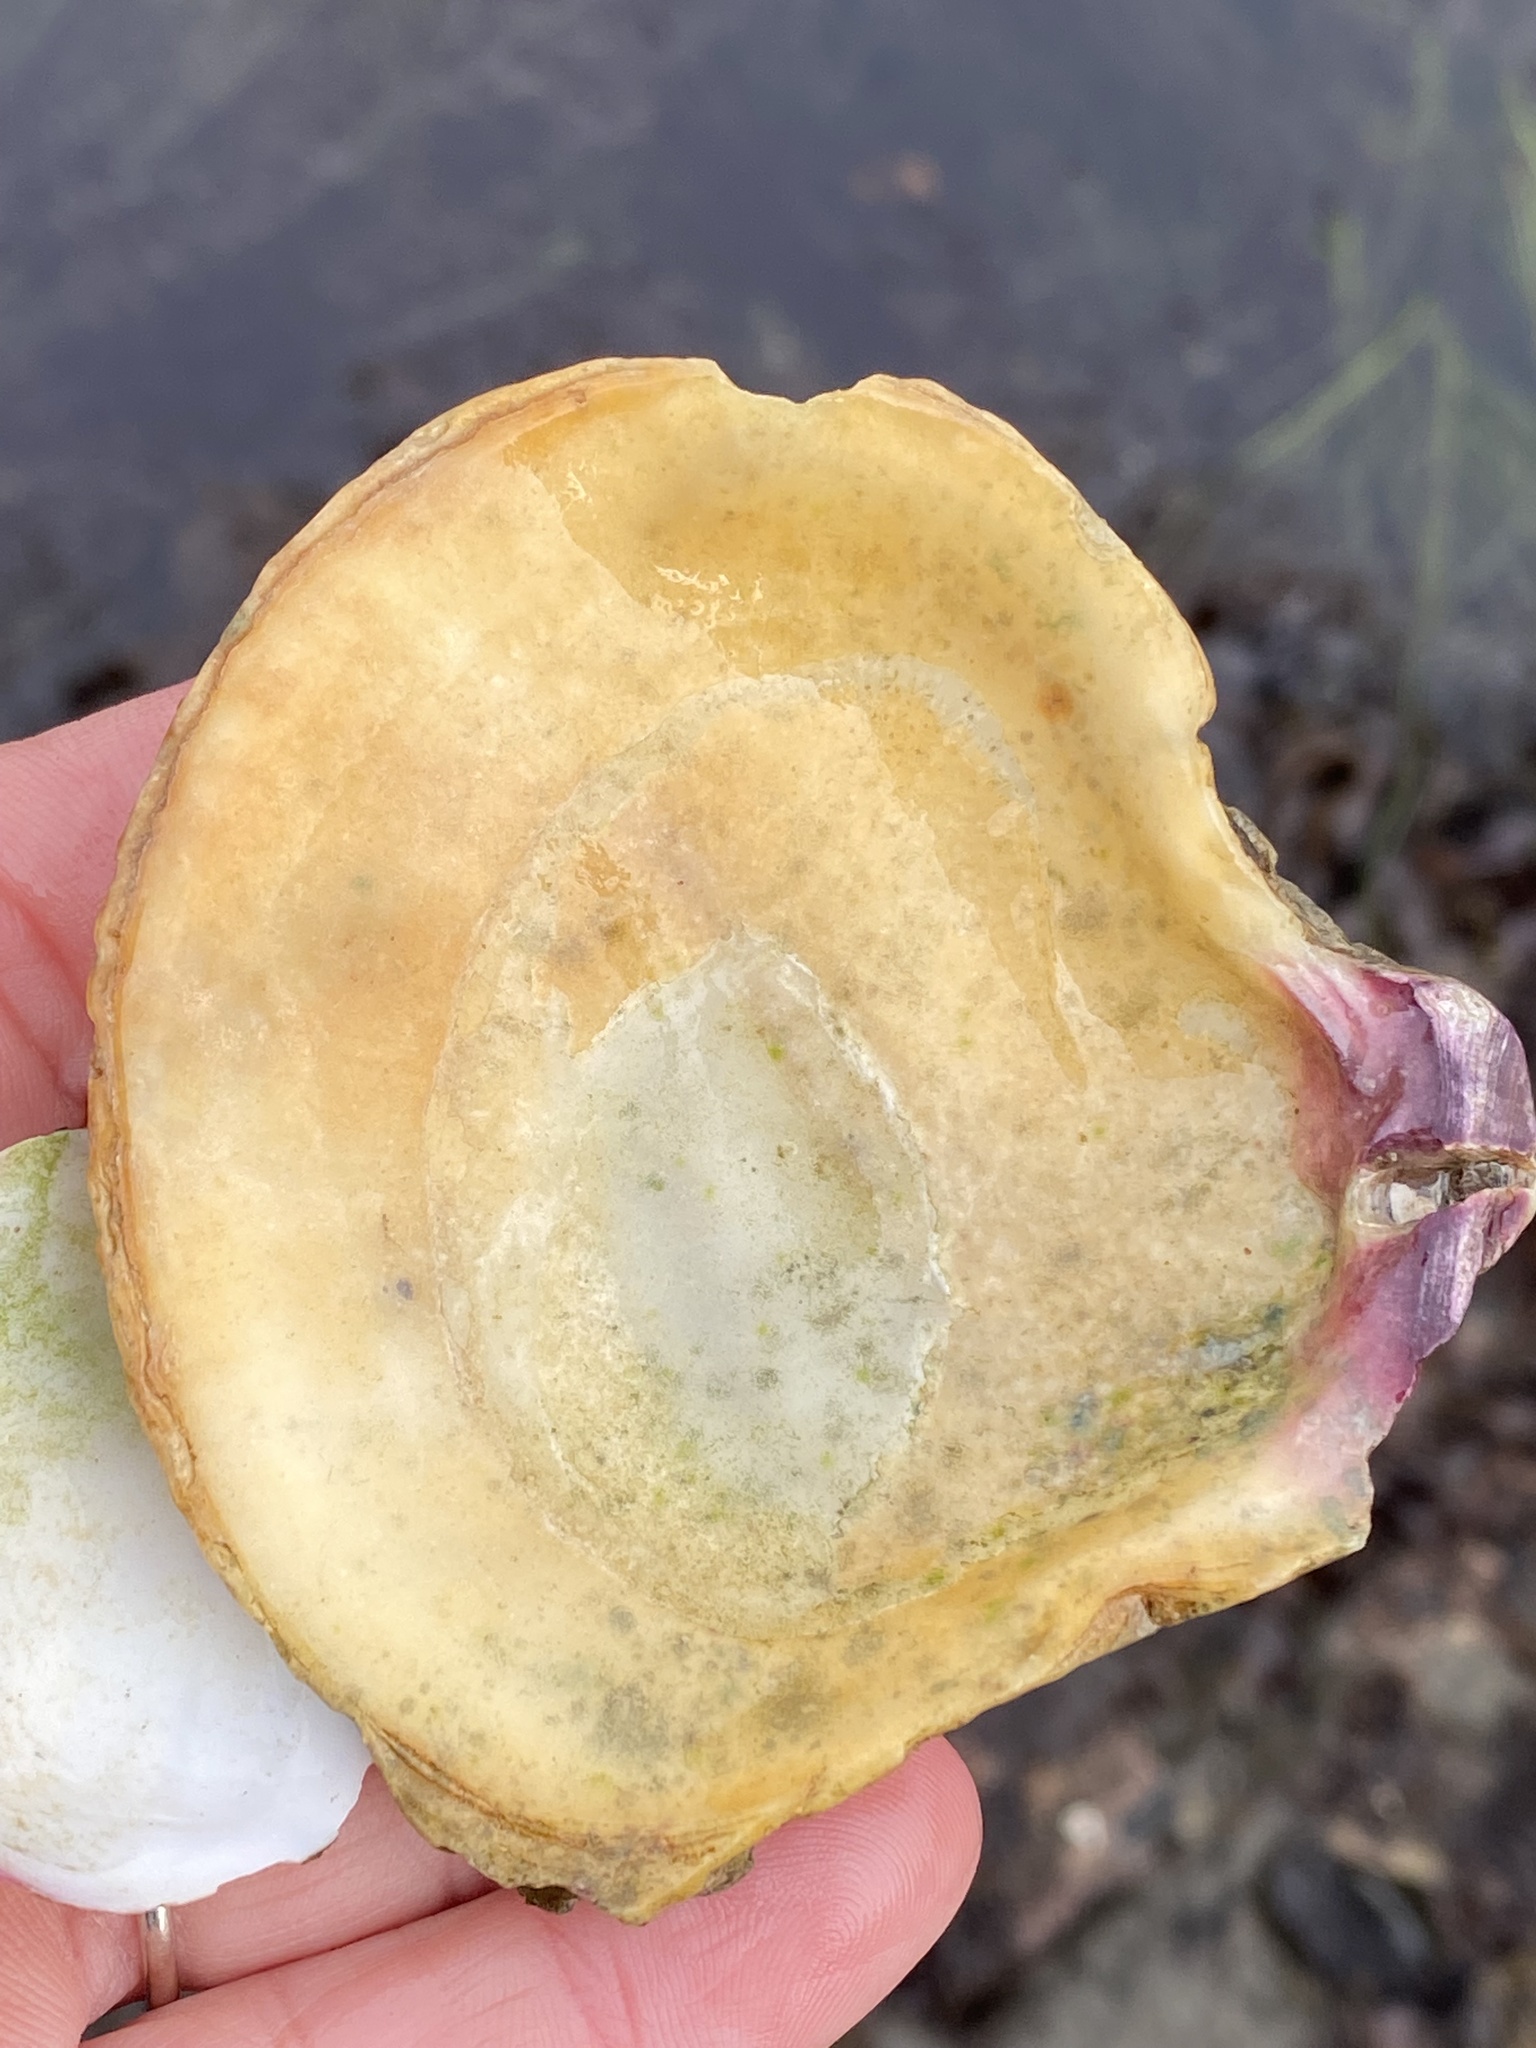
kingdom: Animalia
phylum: Mollusca
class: Bivalvia
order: Pectinida
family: Pectinidae
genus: Crassadoma
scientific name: Crassadoma gigantea
